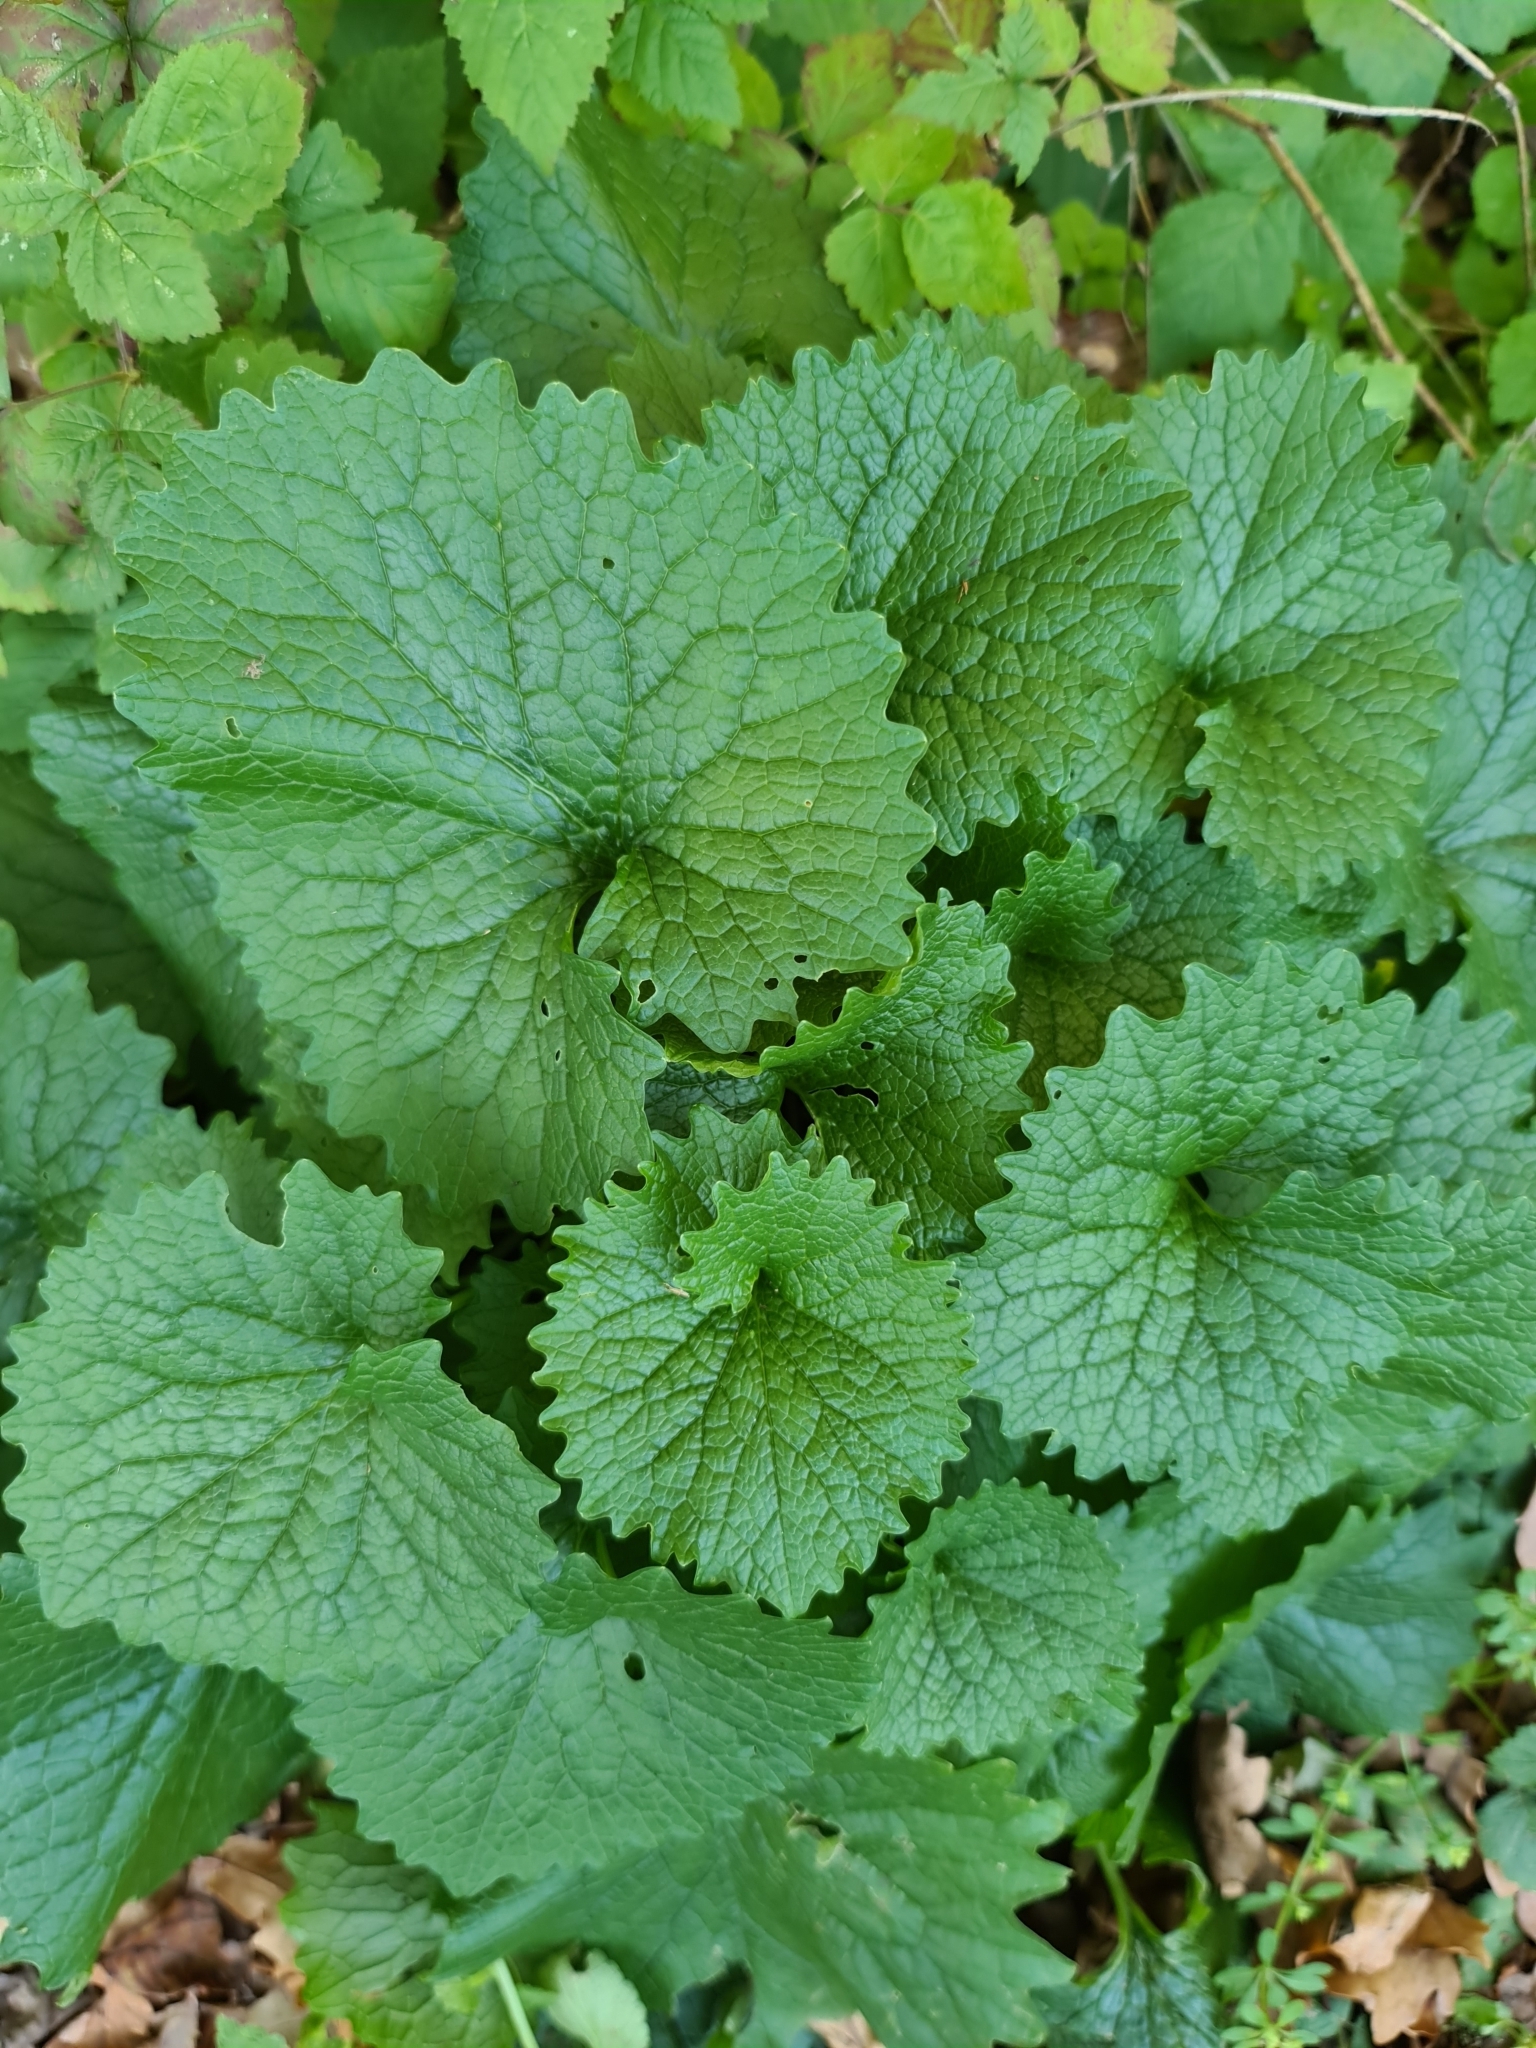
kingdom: Plantae
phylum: Tracheophyta
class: Magnoliopsida
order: Brassicales
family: Brassicaceae
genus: Alliaria
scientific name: Alliaria petiolata
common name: Garlic mustard
